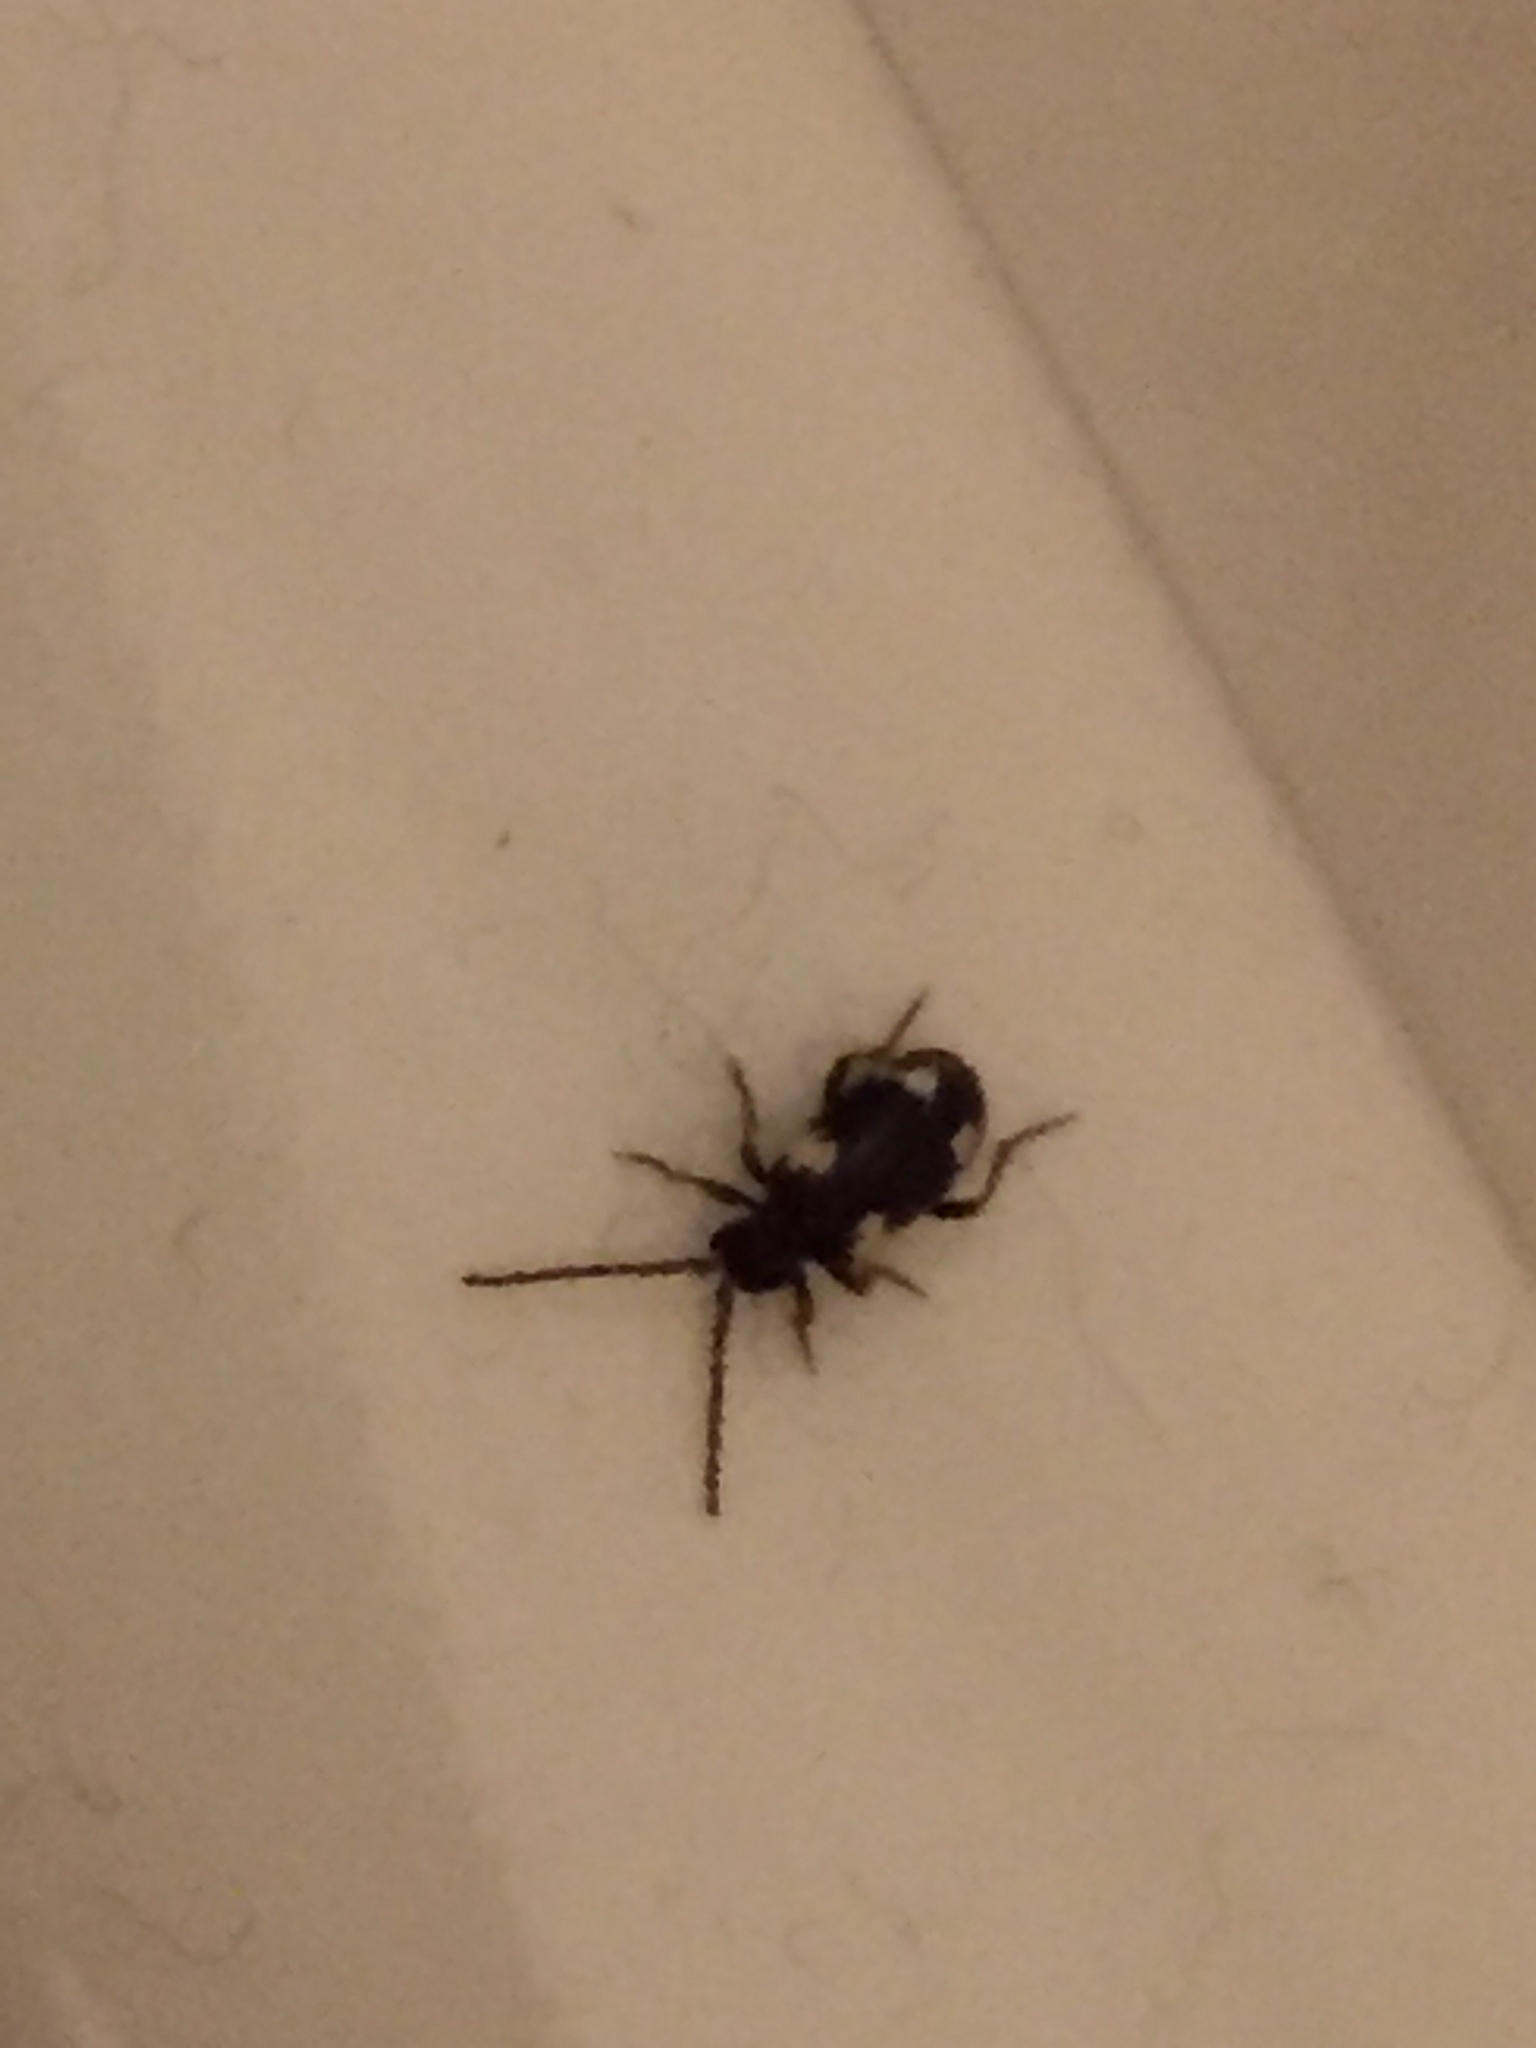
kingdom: Animalia
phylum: Arthropoda
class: Insecta
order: Coleoptera
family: Ptinidae
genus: Ptinus
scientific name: Ptinus sexpunctatus
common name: Six-spotted spider beetle
